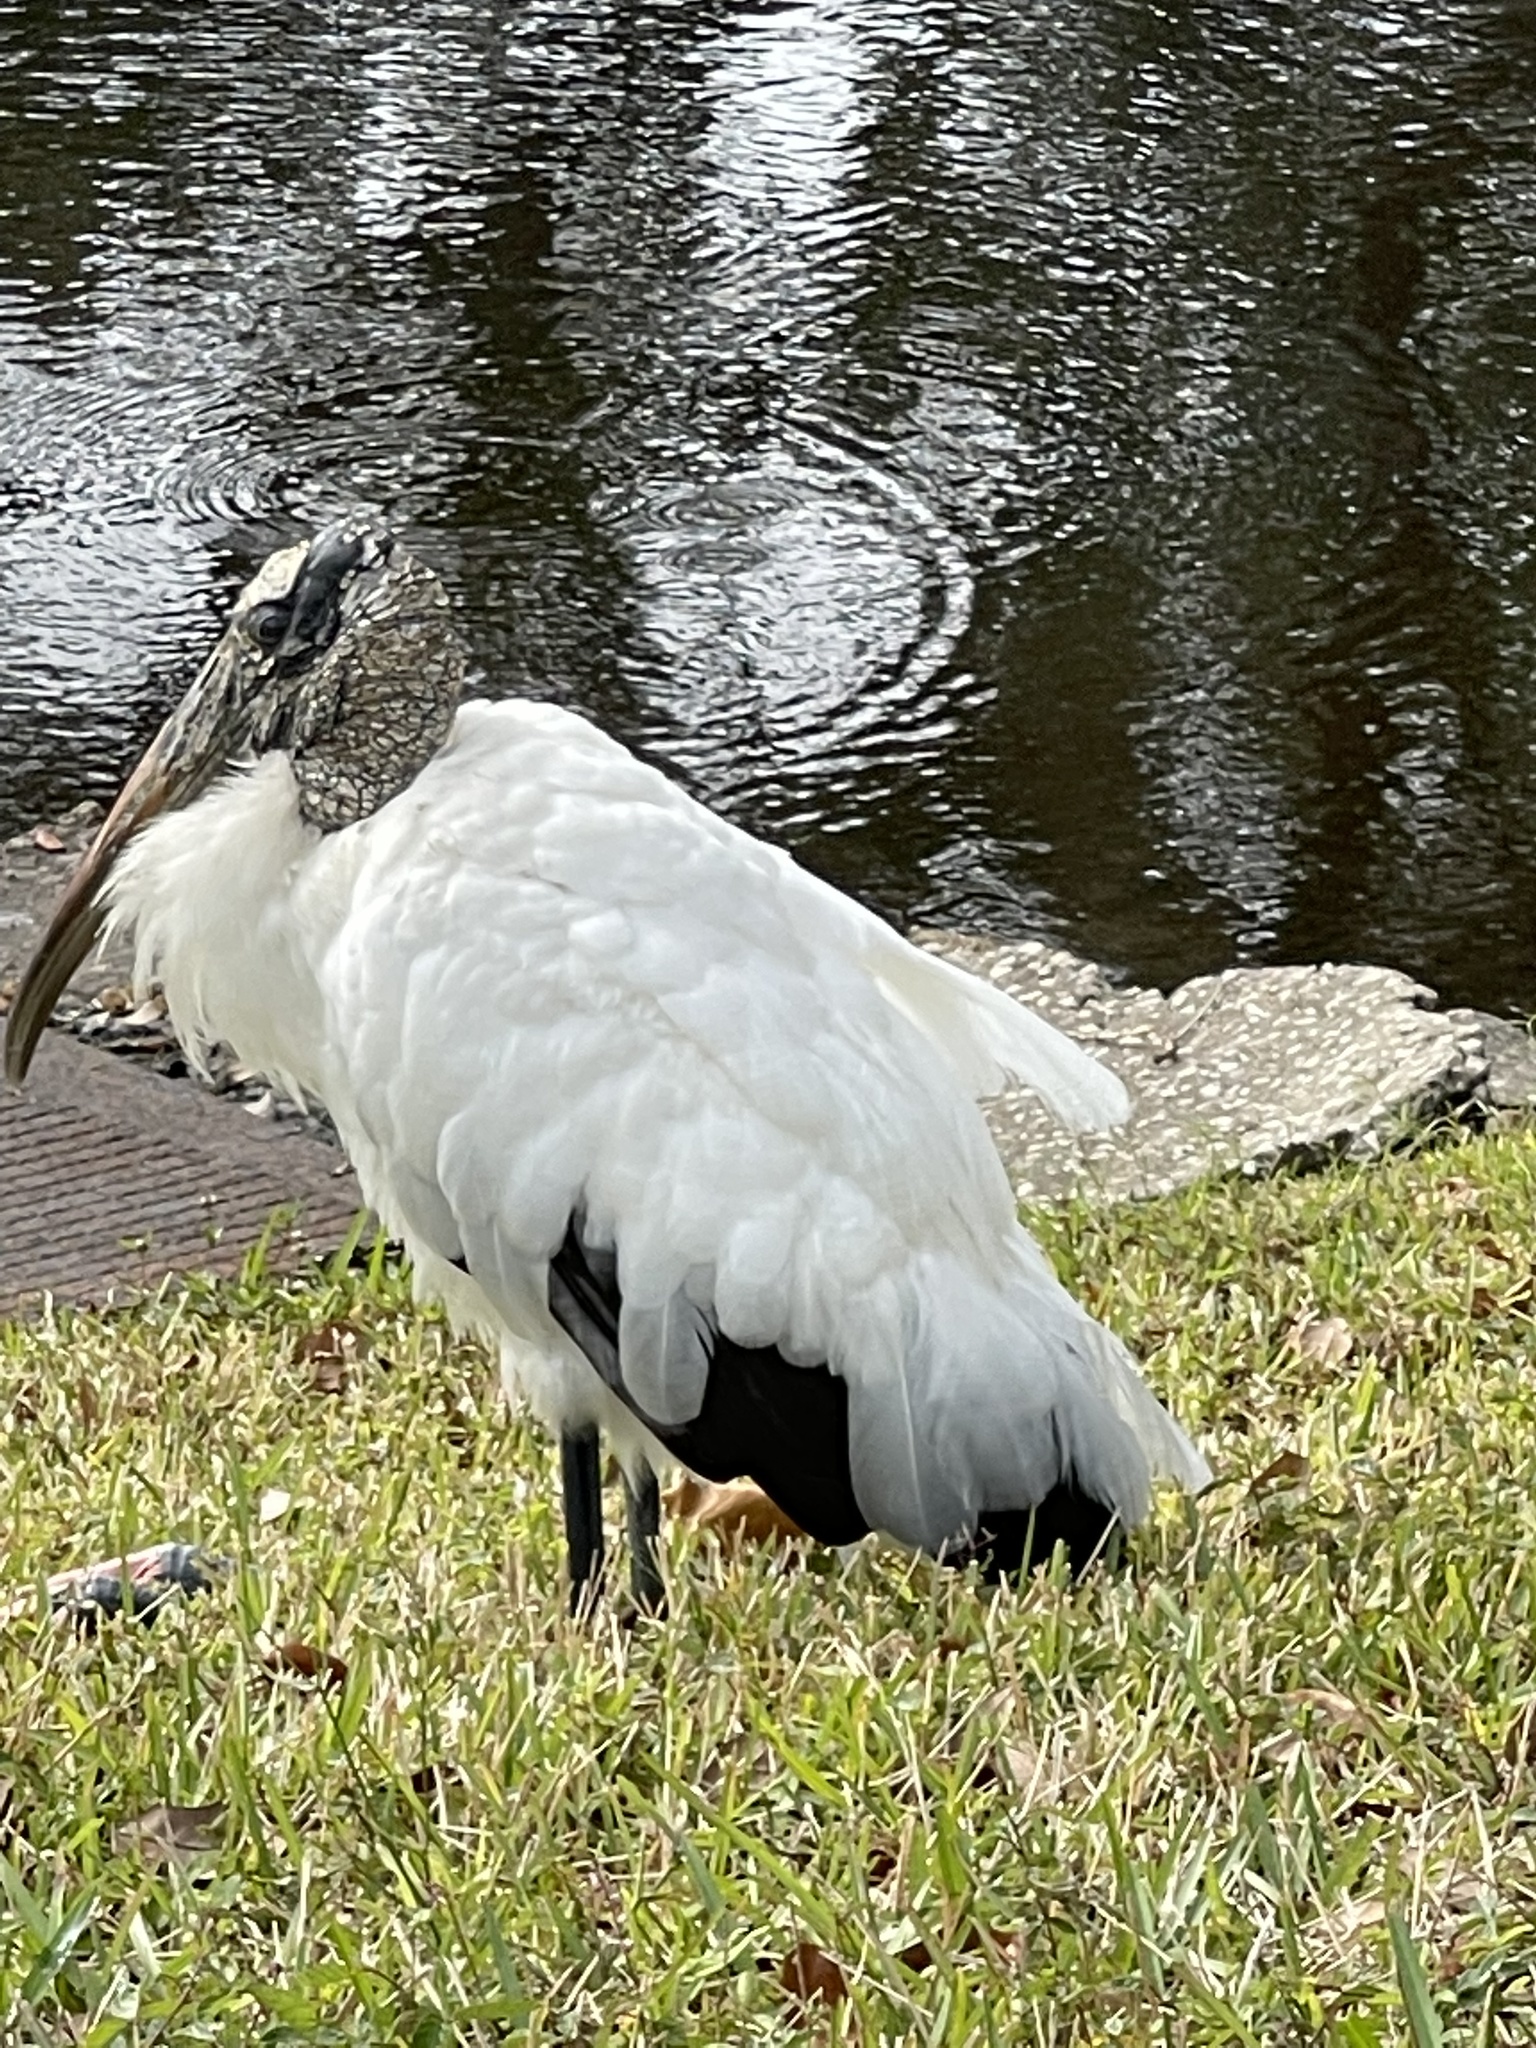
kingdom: Animalia
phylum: Chordata
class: Aves
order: Ciconiiformes
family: Ciconiidae
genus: Mycteria
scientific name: Mycteria americana
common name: Wood stork
